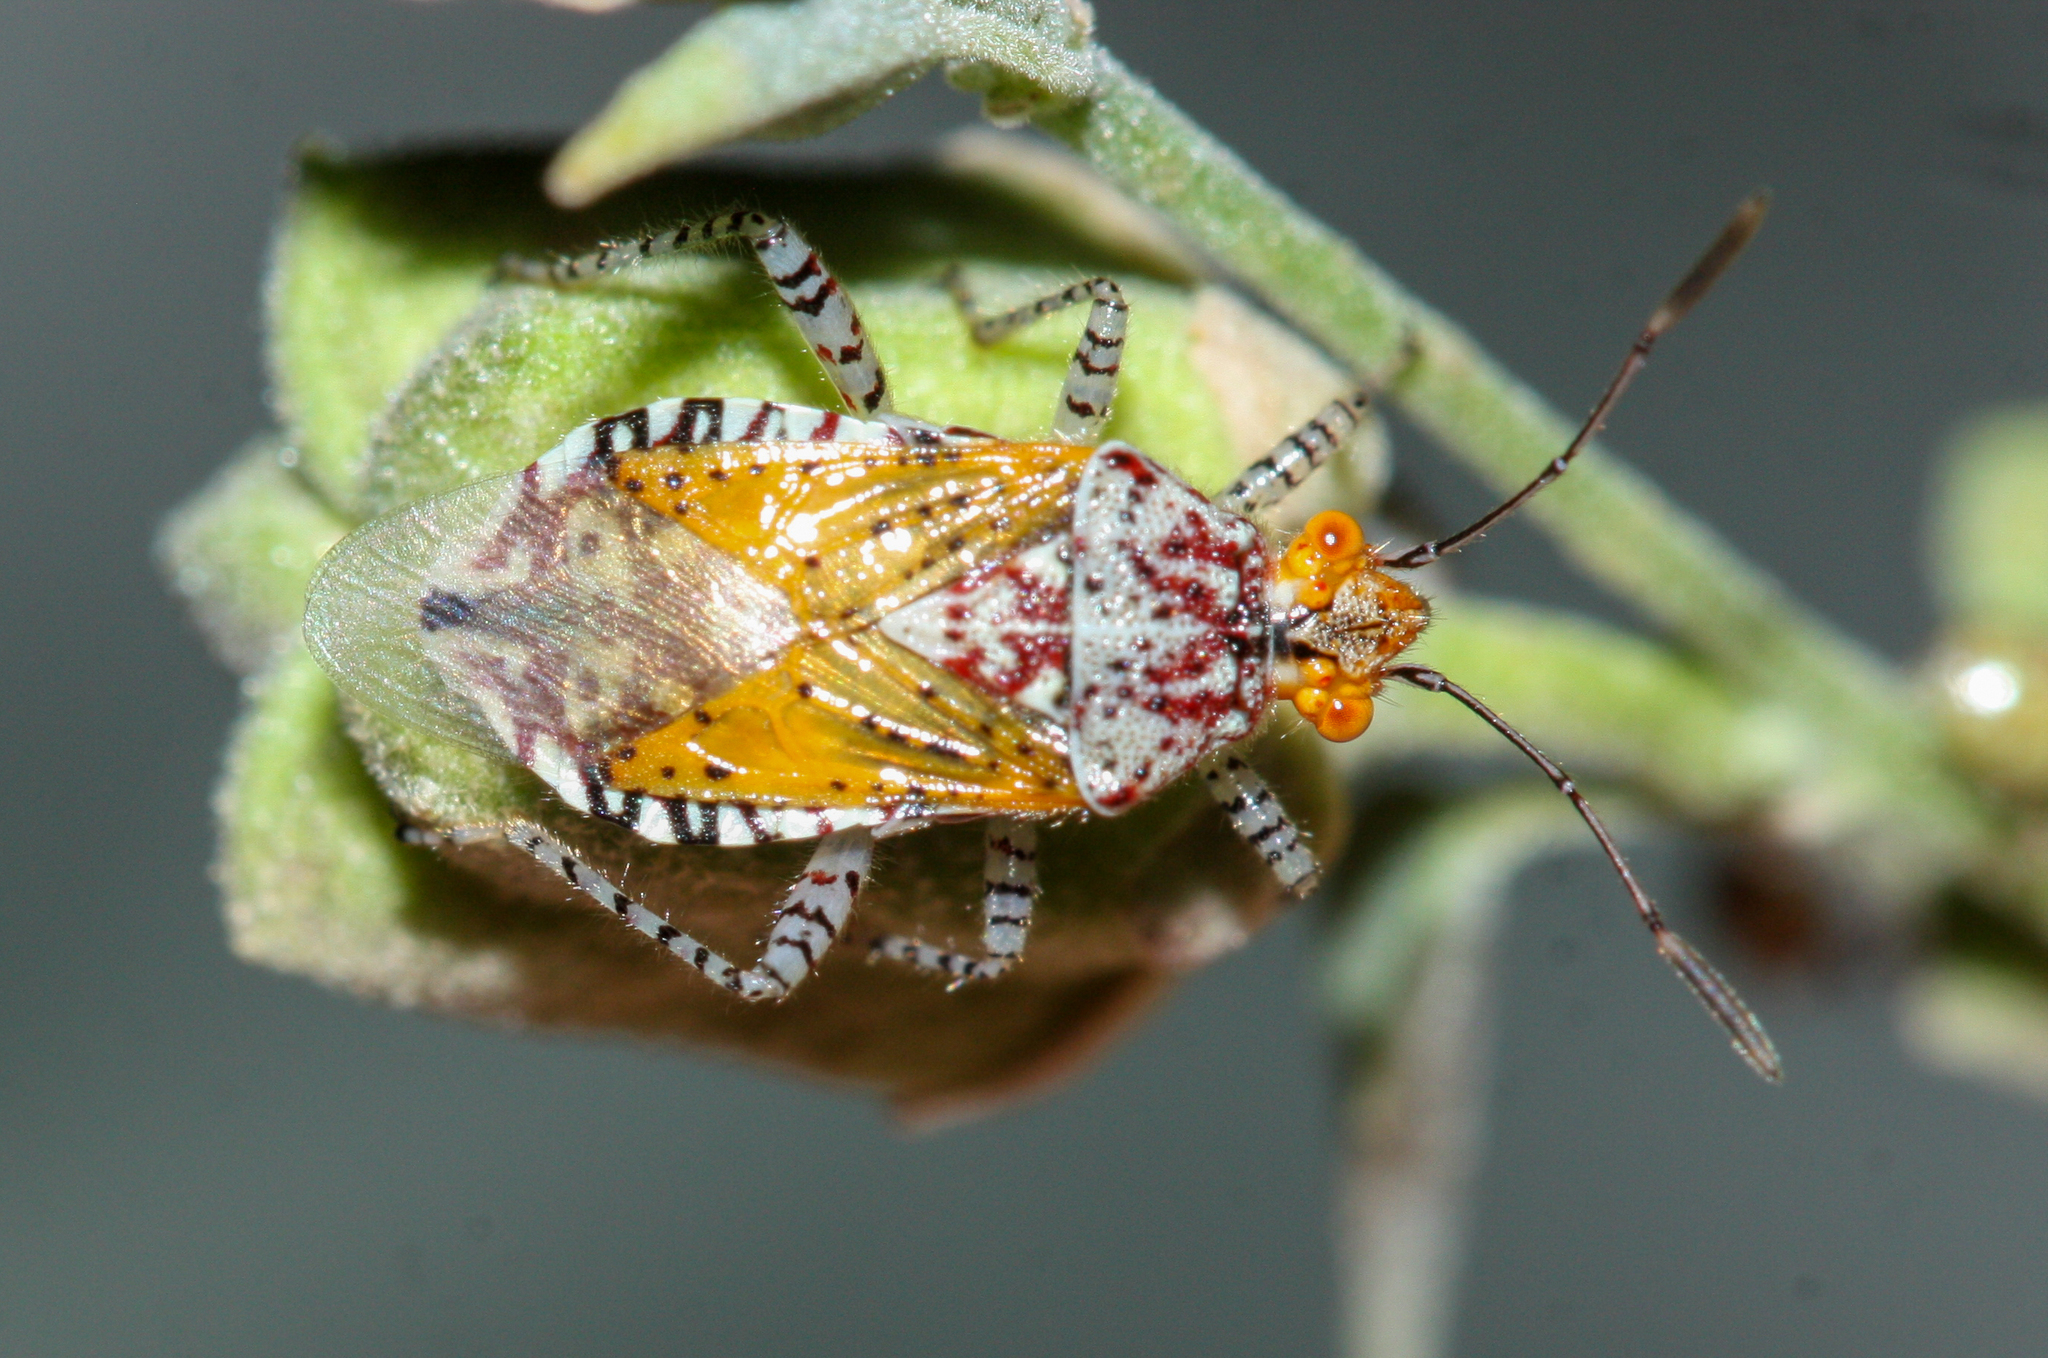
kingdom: Animalia
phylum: Arthropoda
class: Insecta
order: Hemiptera
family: Rhopalidae
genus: Niesthrea
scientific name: Niesthrea louisianica
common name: Scentless plant bug
